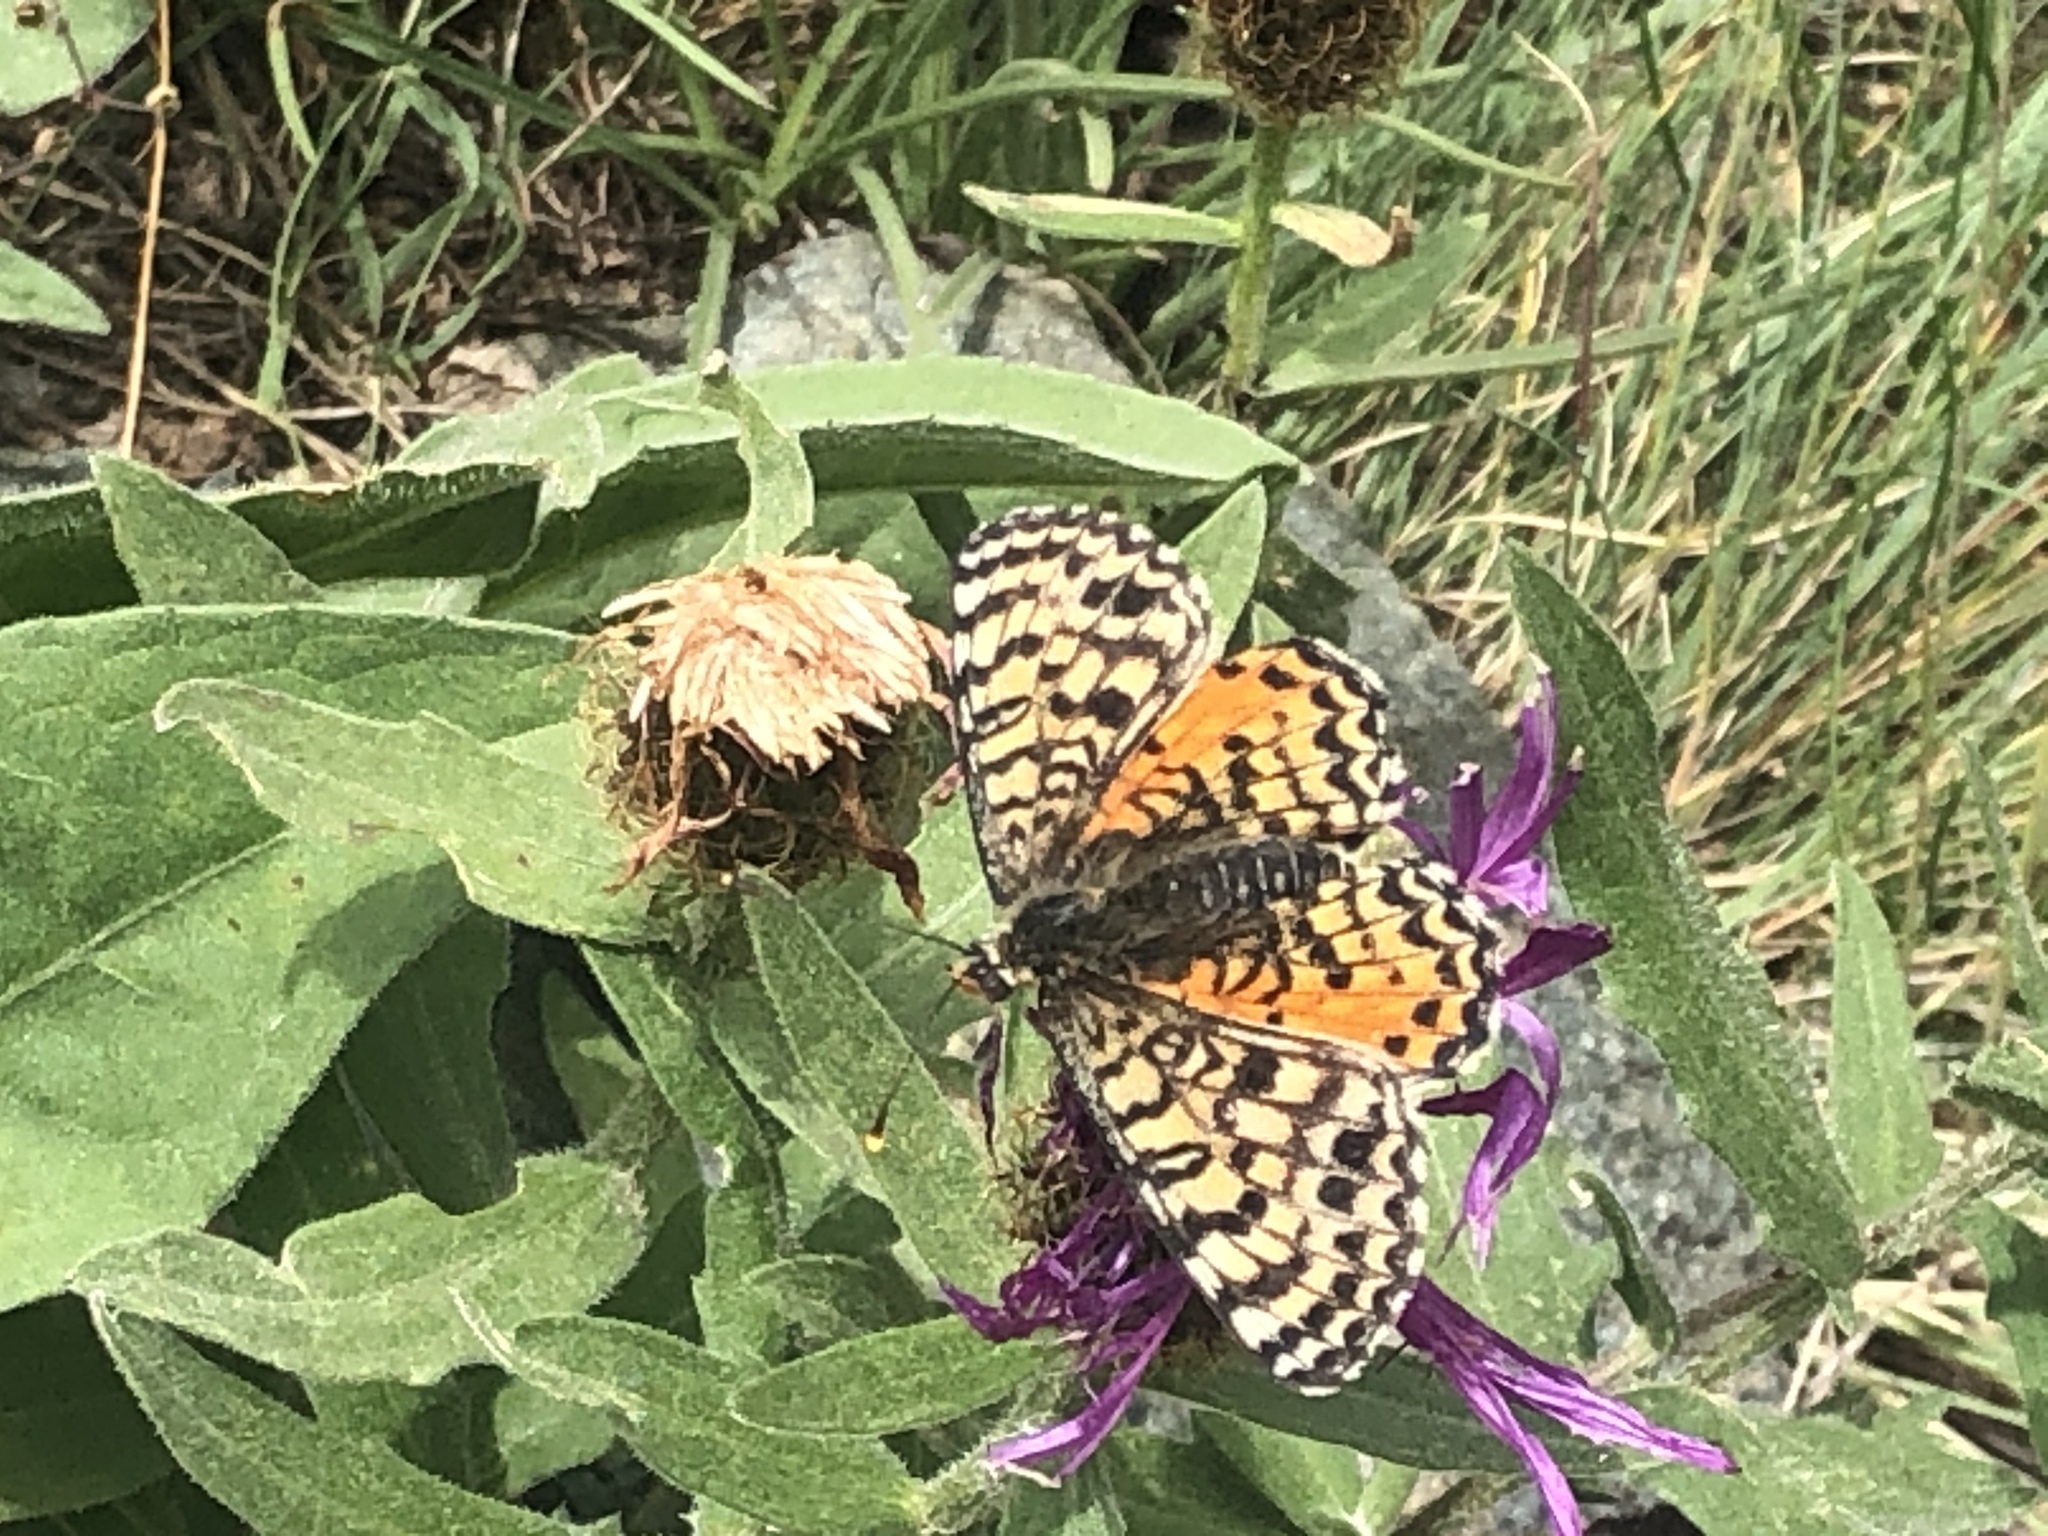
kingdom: Animalia
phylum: Arthropoda
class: Insecta
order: Lepidoptera
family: Nymphalidae
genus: Melitaea
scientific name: Melitaea didyma
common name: Spotted fritillary
